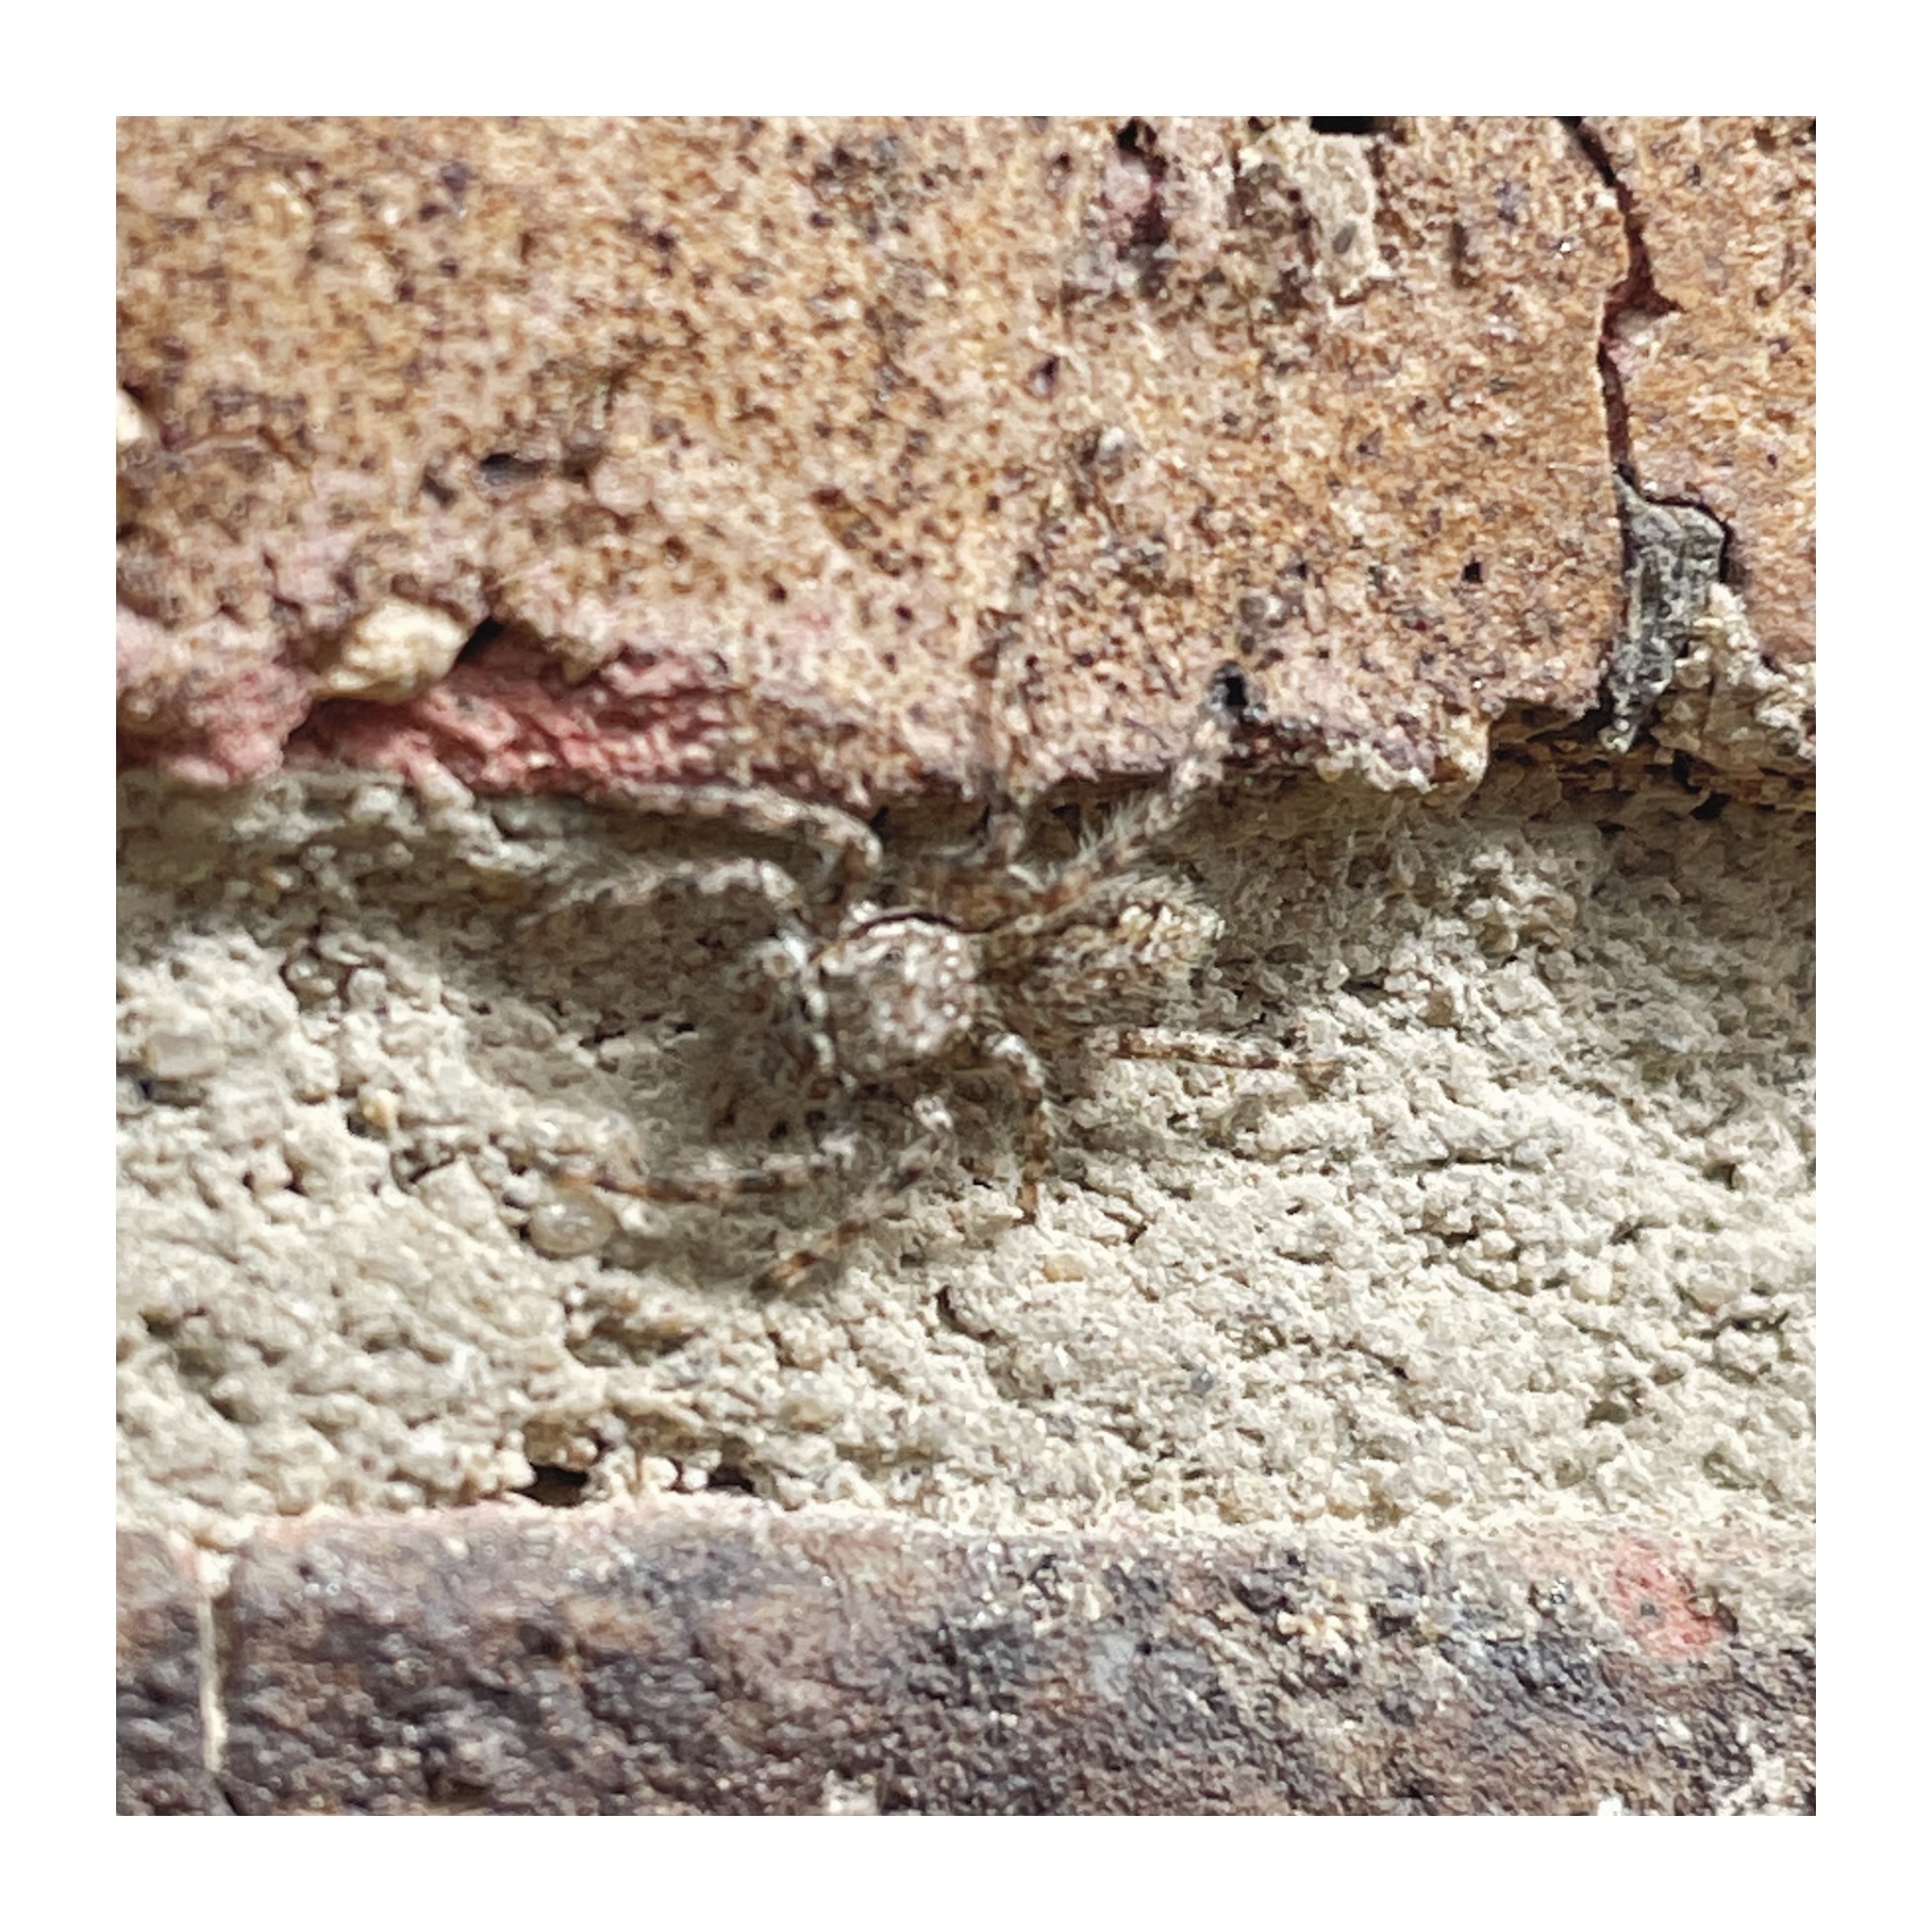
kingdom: Animalia
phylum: Arthropoda
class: Arachnida
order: Araneae
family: Salticidae
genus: Platycryptus
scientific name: Platycryptus undatus
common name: Tan jumping spider
